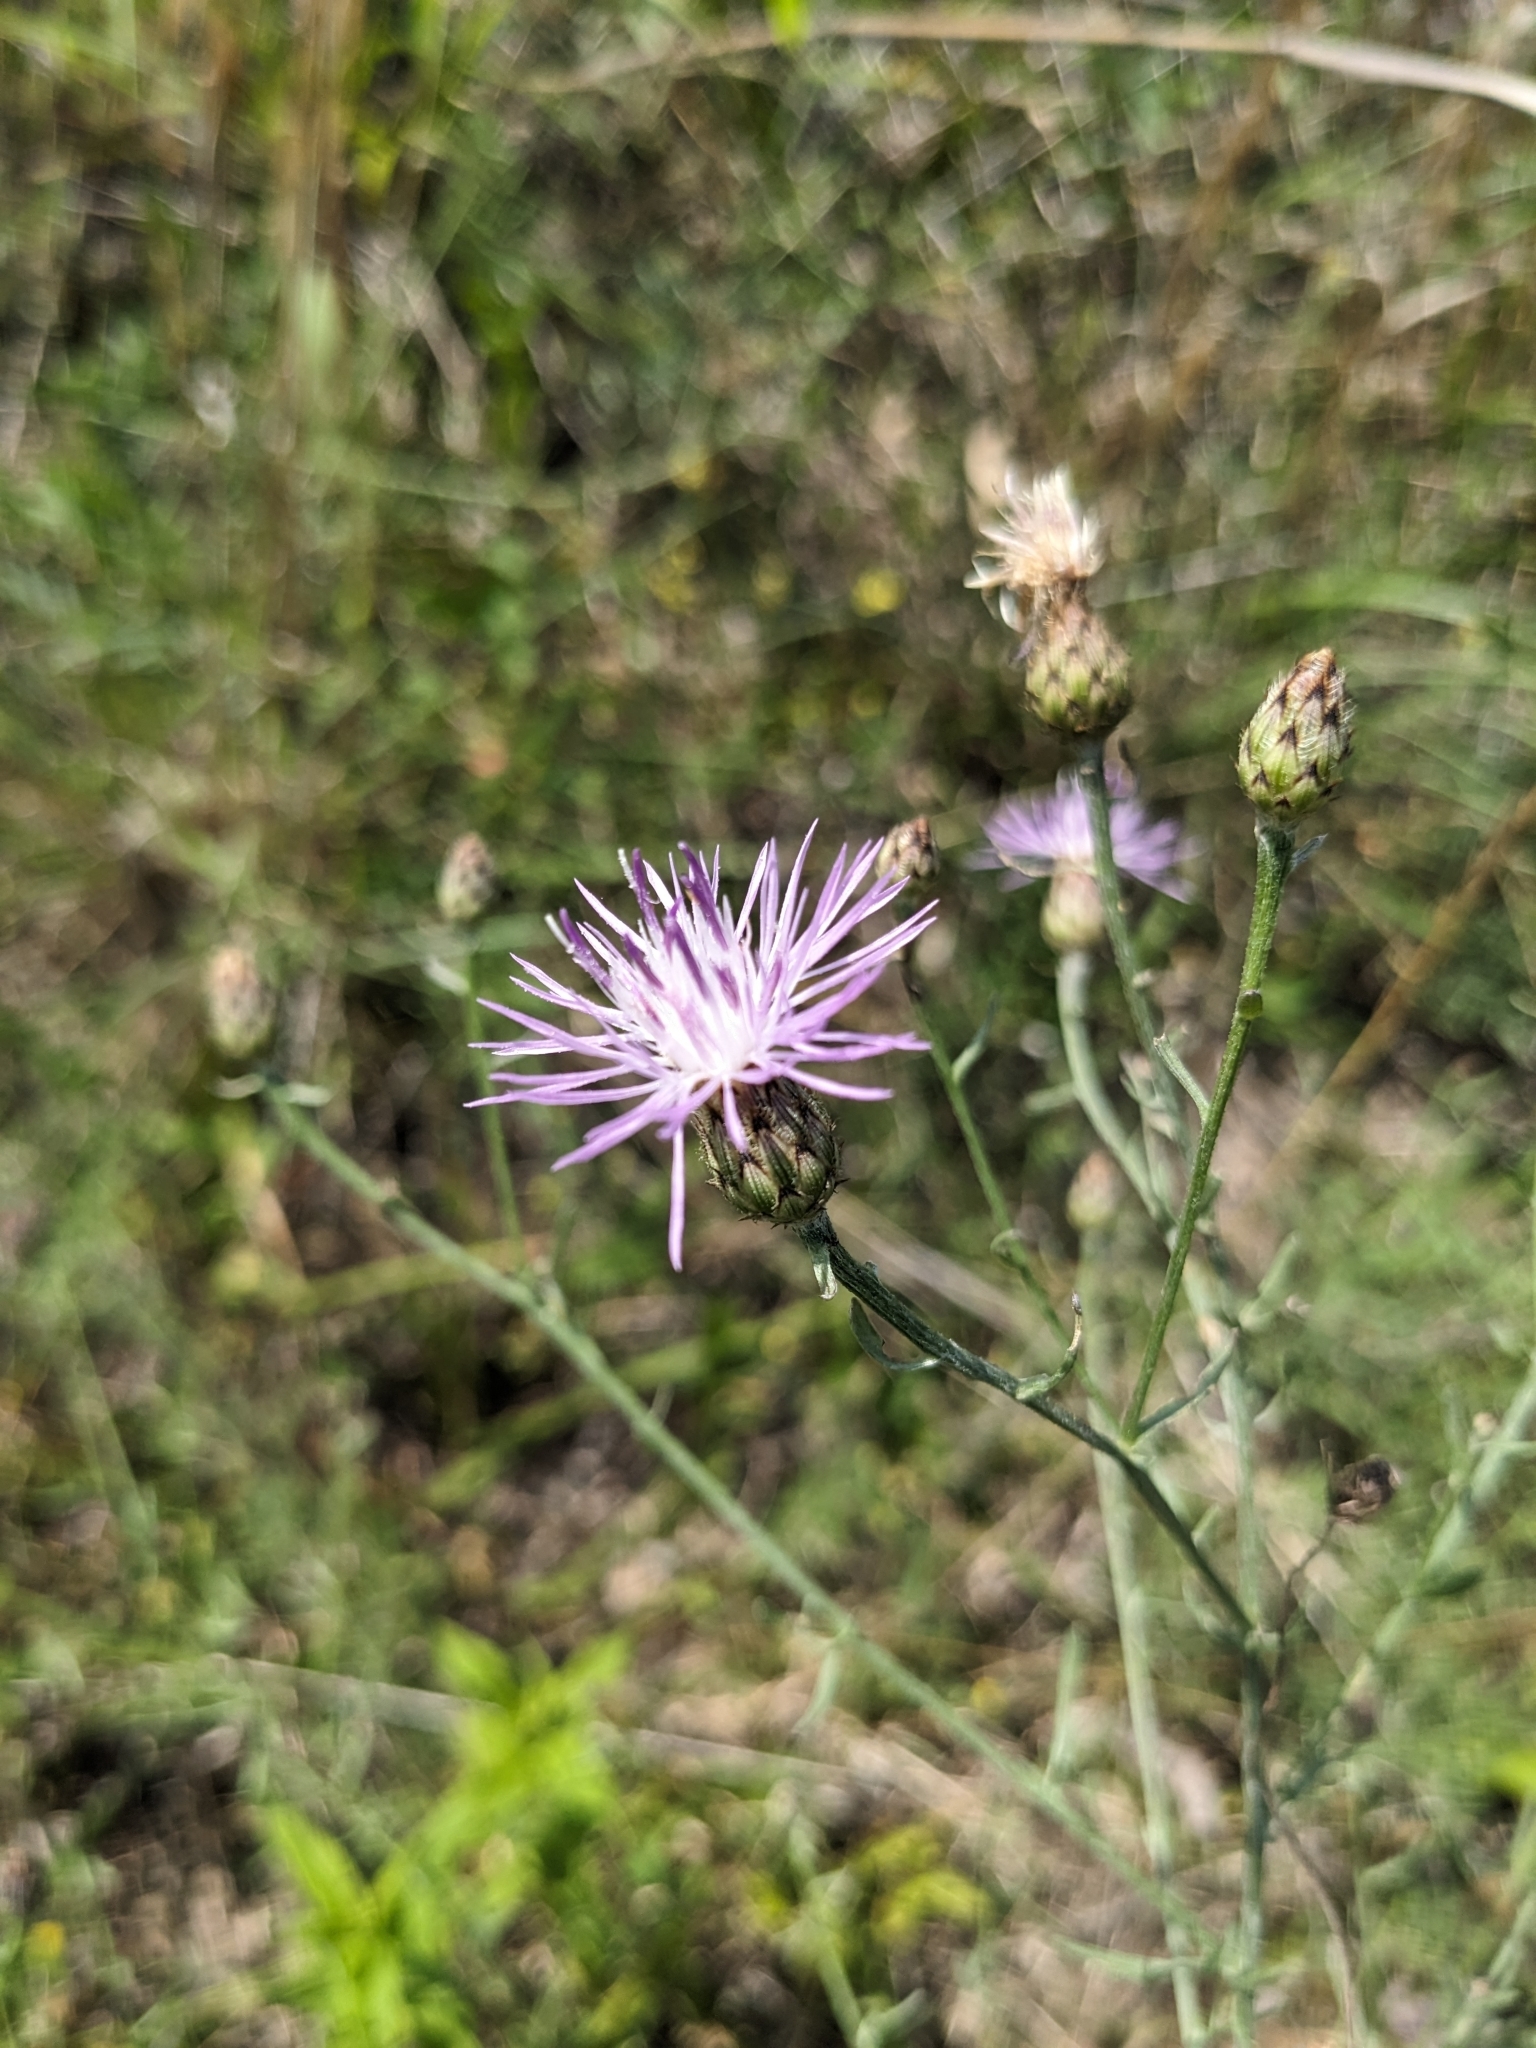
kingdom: Plantae
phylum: Tracheophyta
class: Magnoliopsida
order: Asterales
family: Asteraceae
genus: Centaurea
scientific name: Centaurea stoebe
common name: Spotted knapweed
